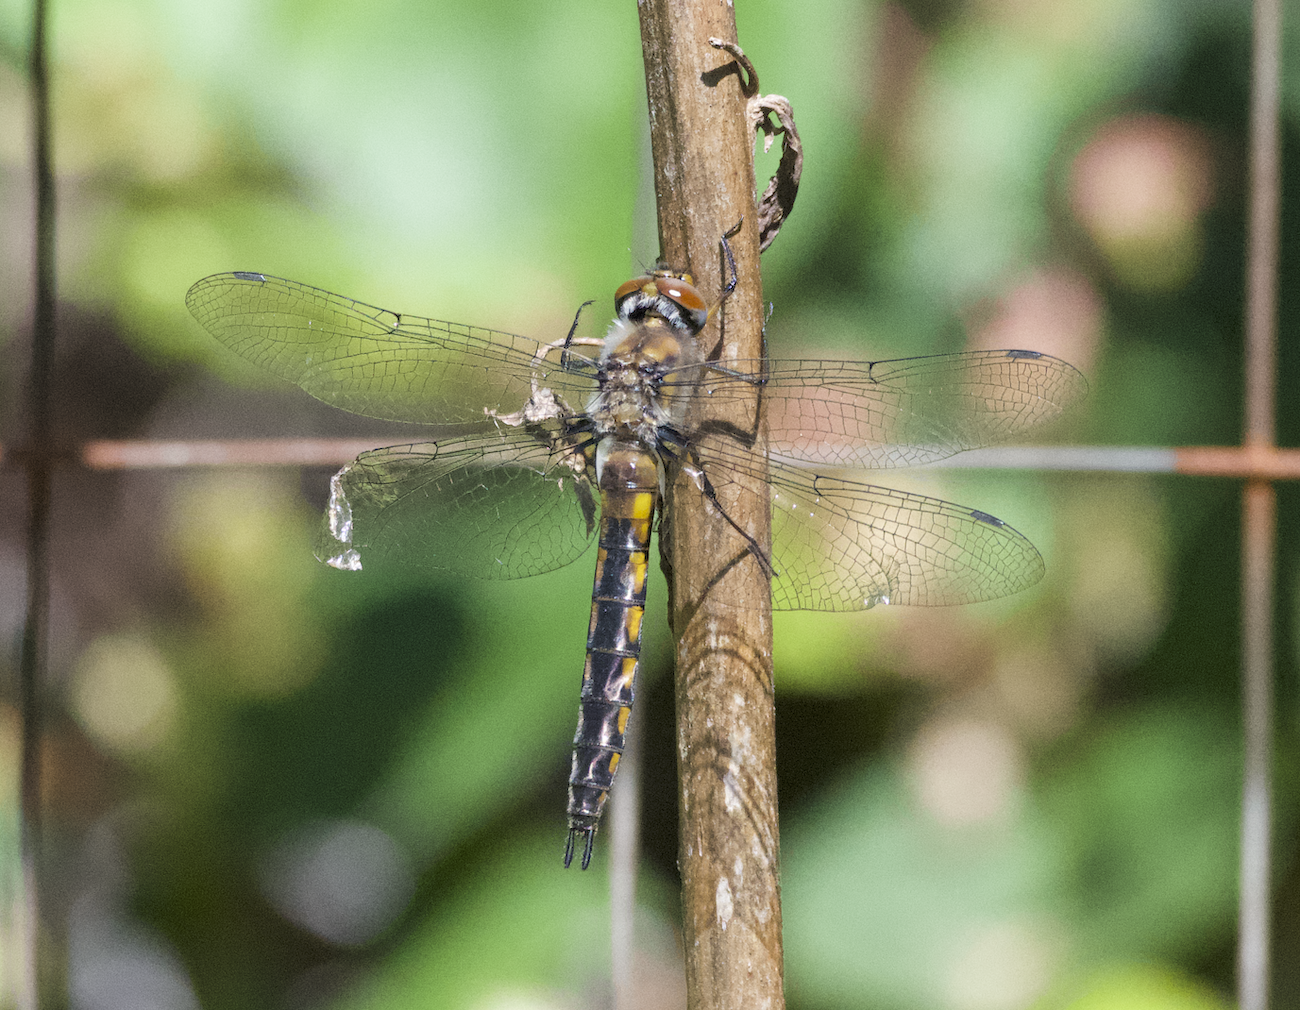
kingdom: Animalia
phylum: Arthropoda
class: Insecta
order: Odonata
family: Corduliidae
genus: Epitheca
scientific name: Epitheca spinigera
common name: Spiny baskettail
